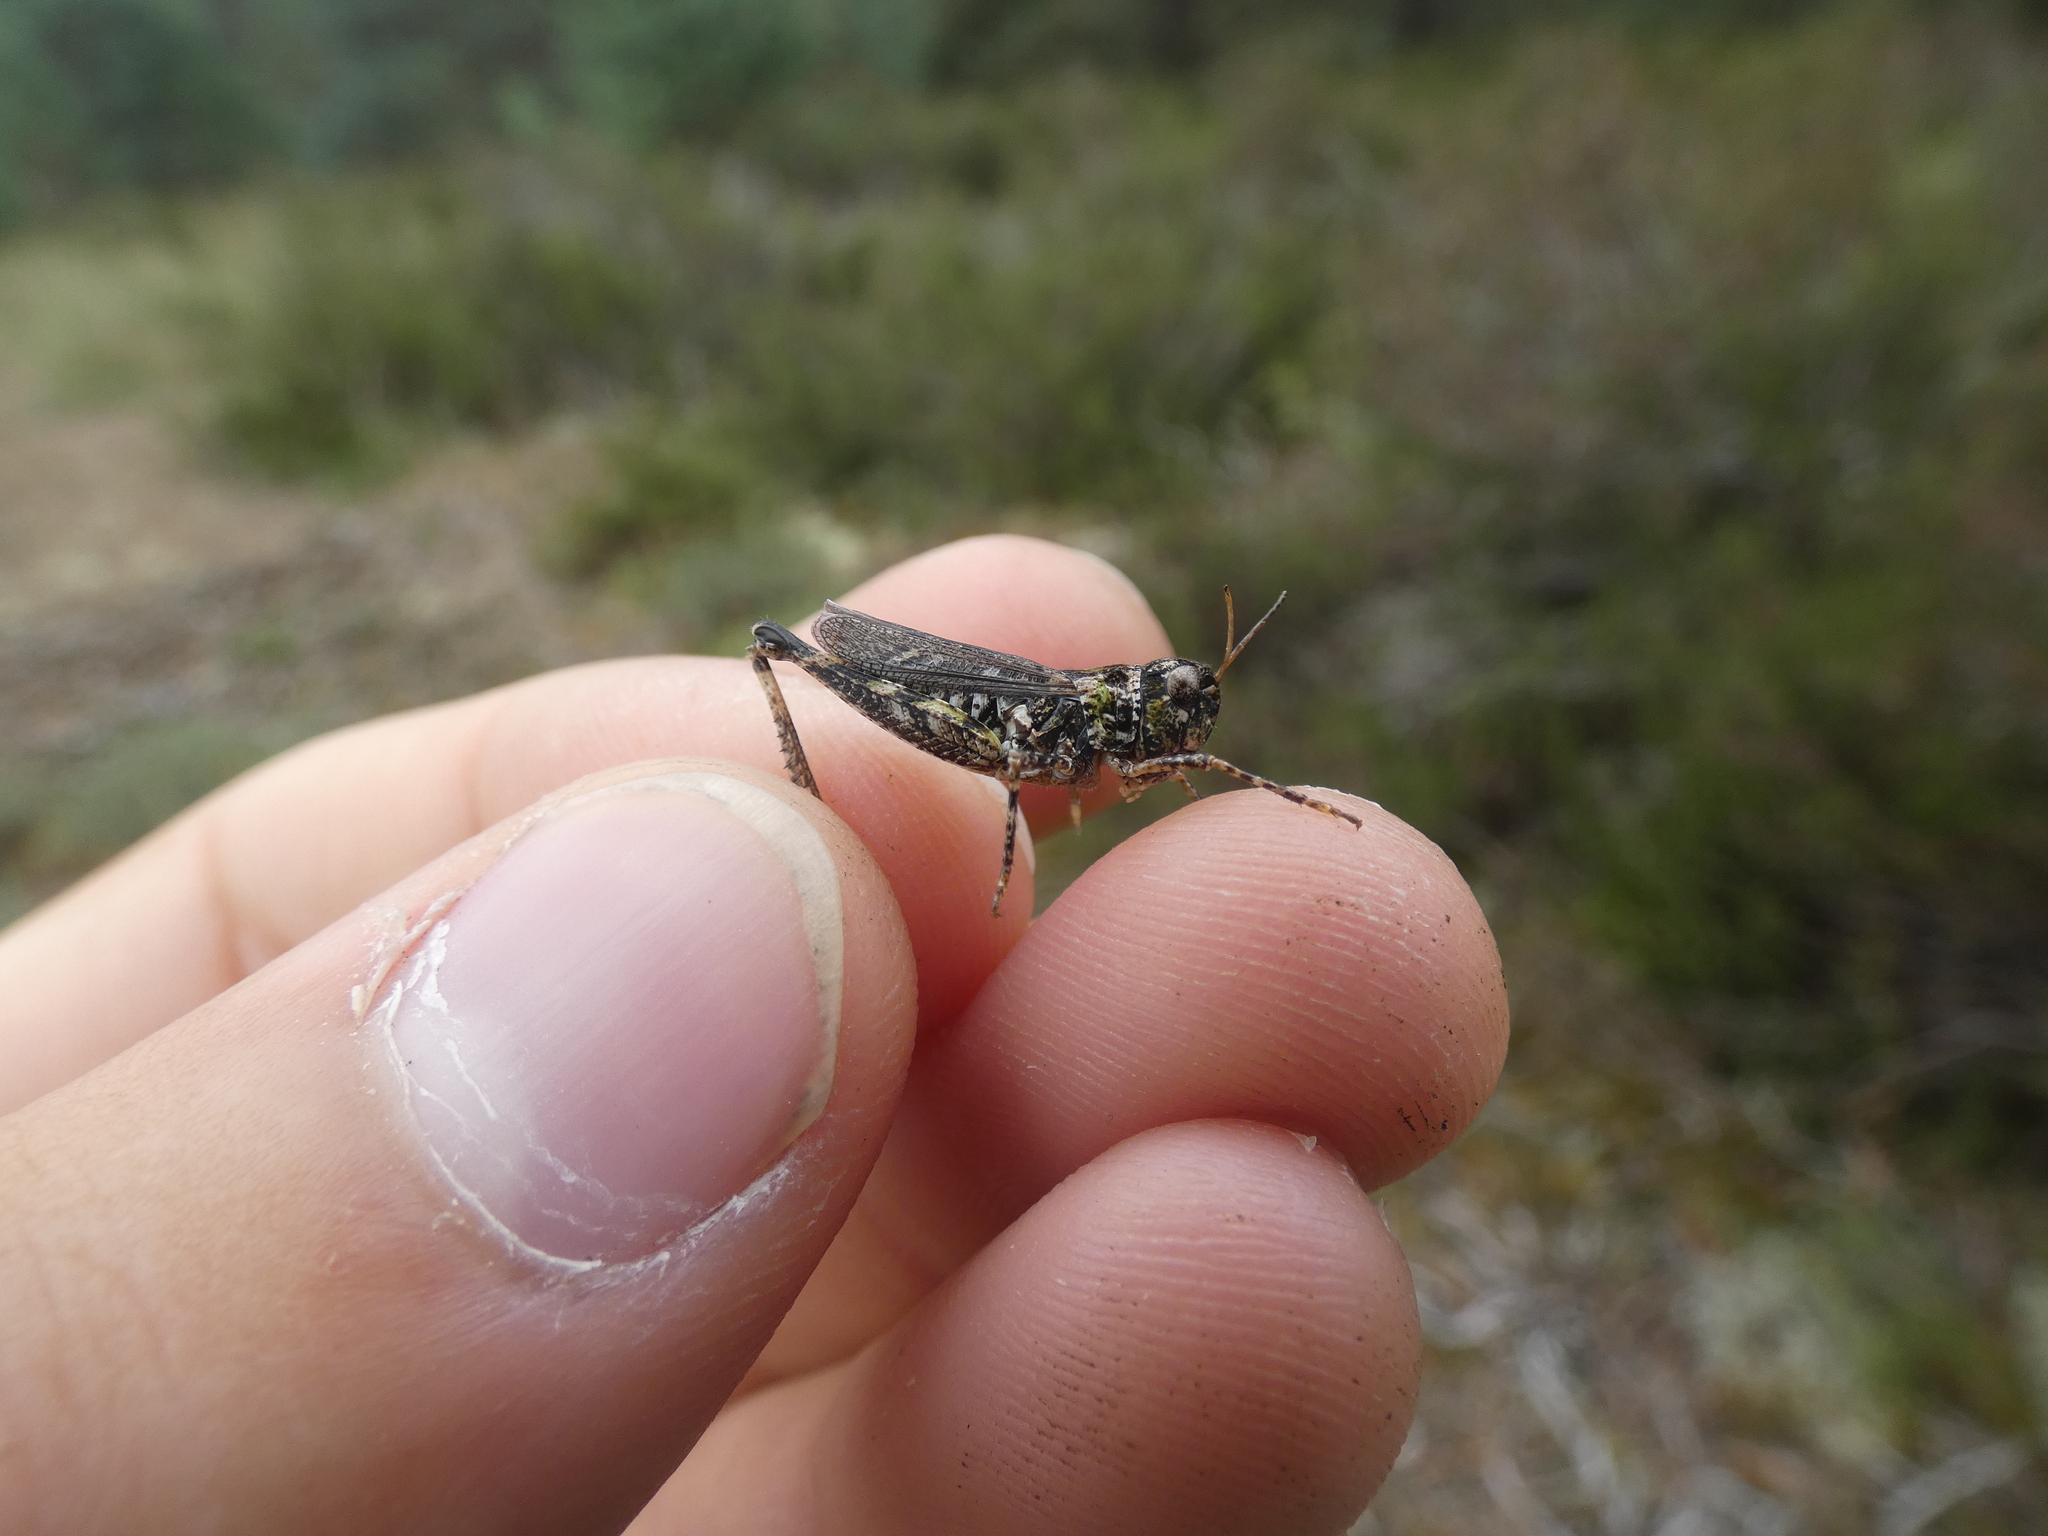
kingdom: Animalia
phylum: Arthropoda
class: Insecta
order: Orthoptera
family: Acrididae
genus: Myrmeleotettix
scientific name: Myrmeleotettix maculatus
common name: Mottled grasshopper
